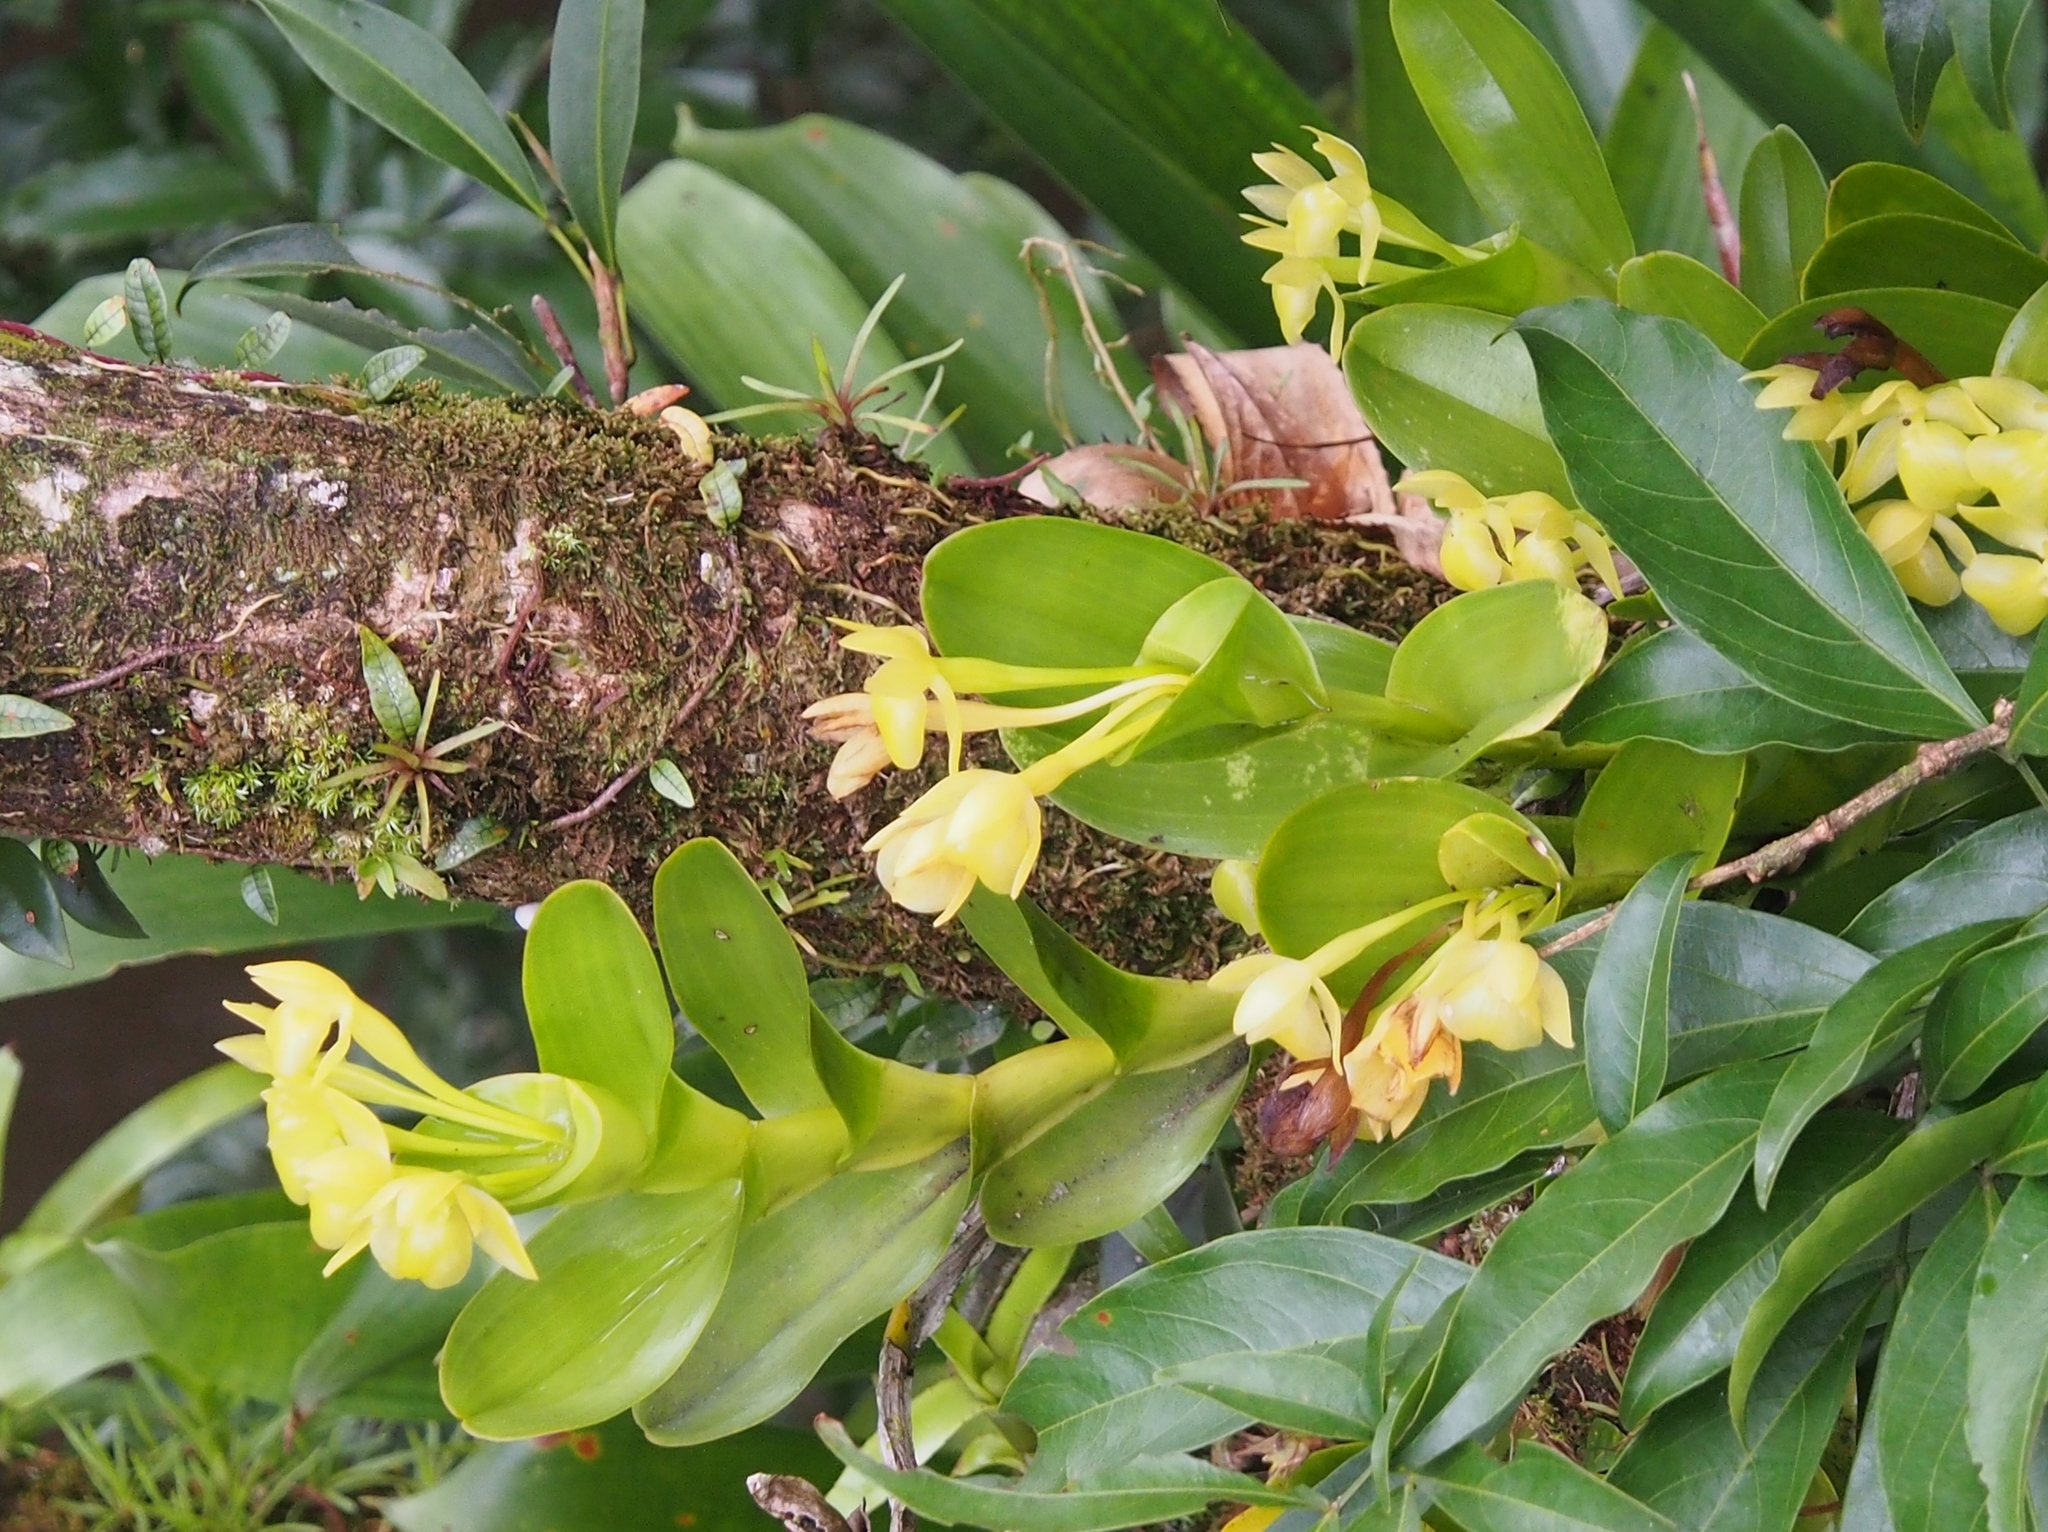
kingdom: Plantae
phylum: Tracheophyta
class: Liliopsida
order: Asparagales
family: Orchidaceae
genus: Epidendrum
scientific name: Epidendrum hunterianum
